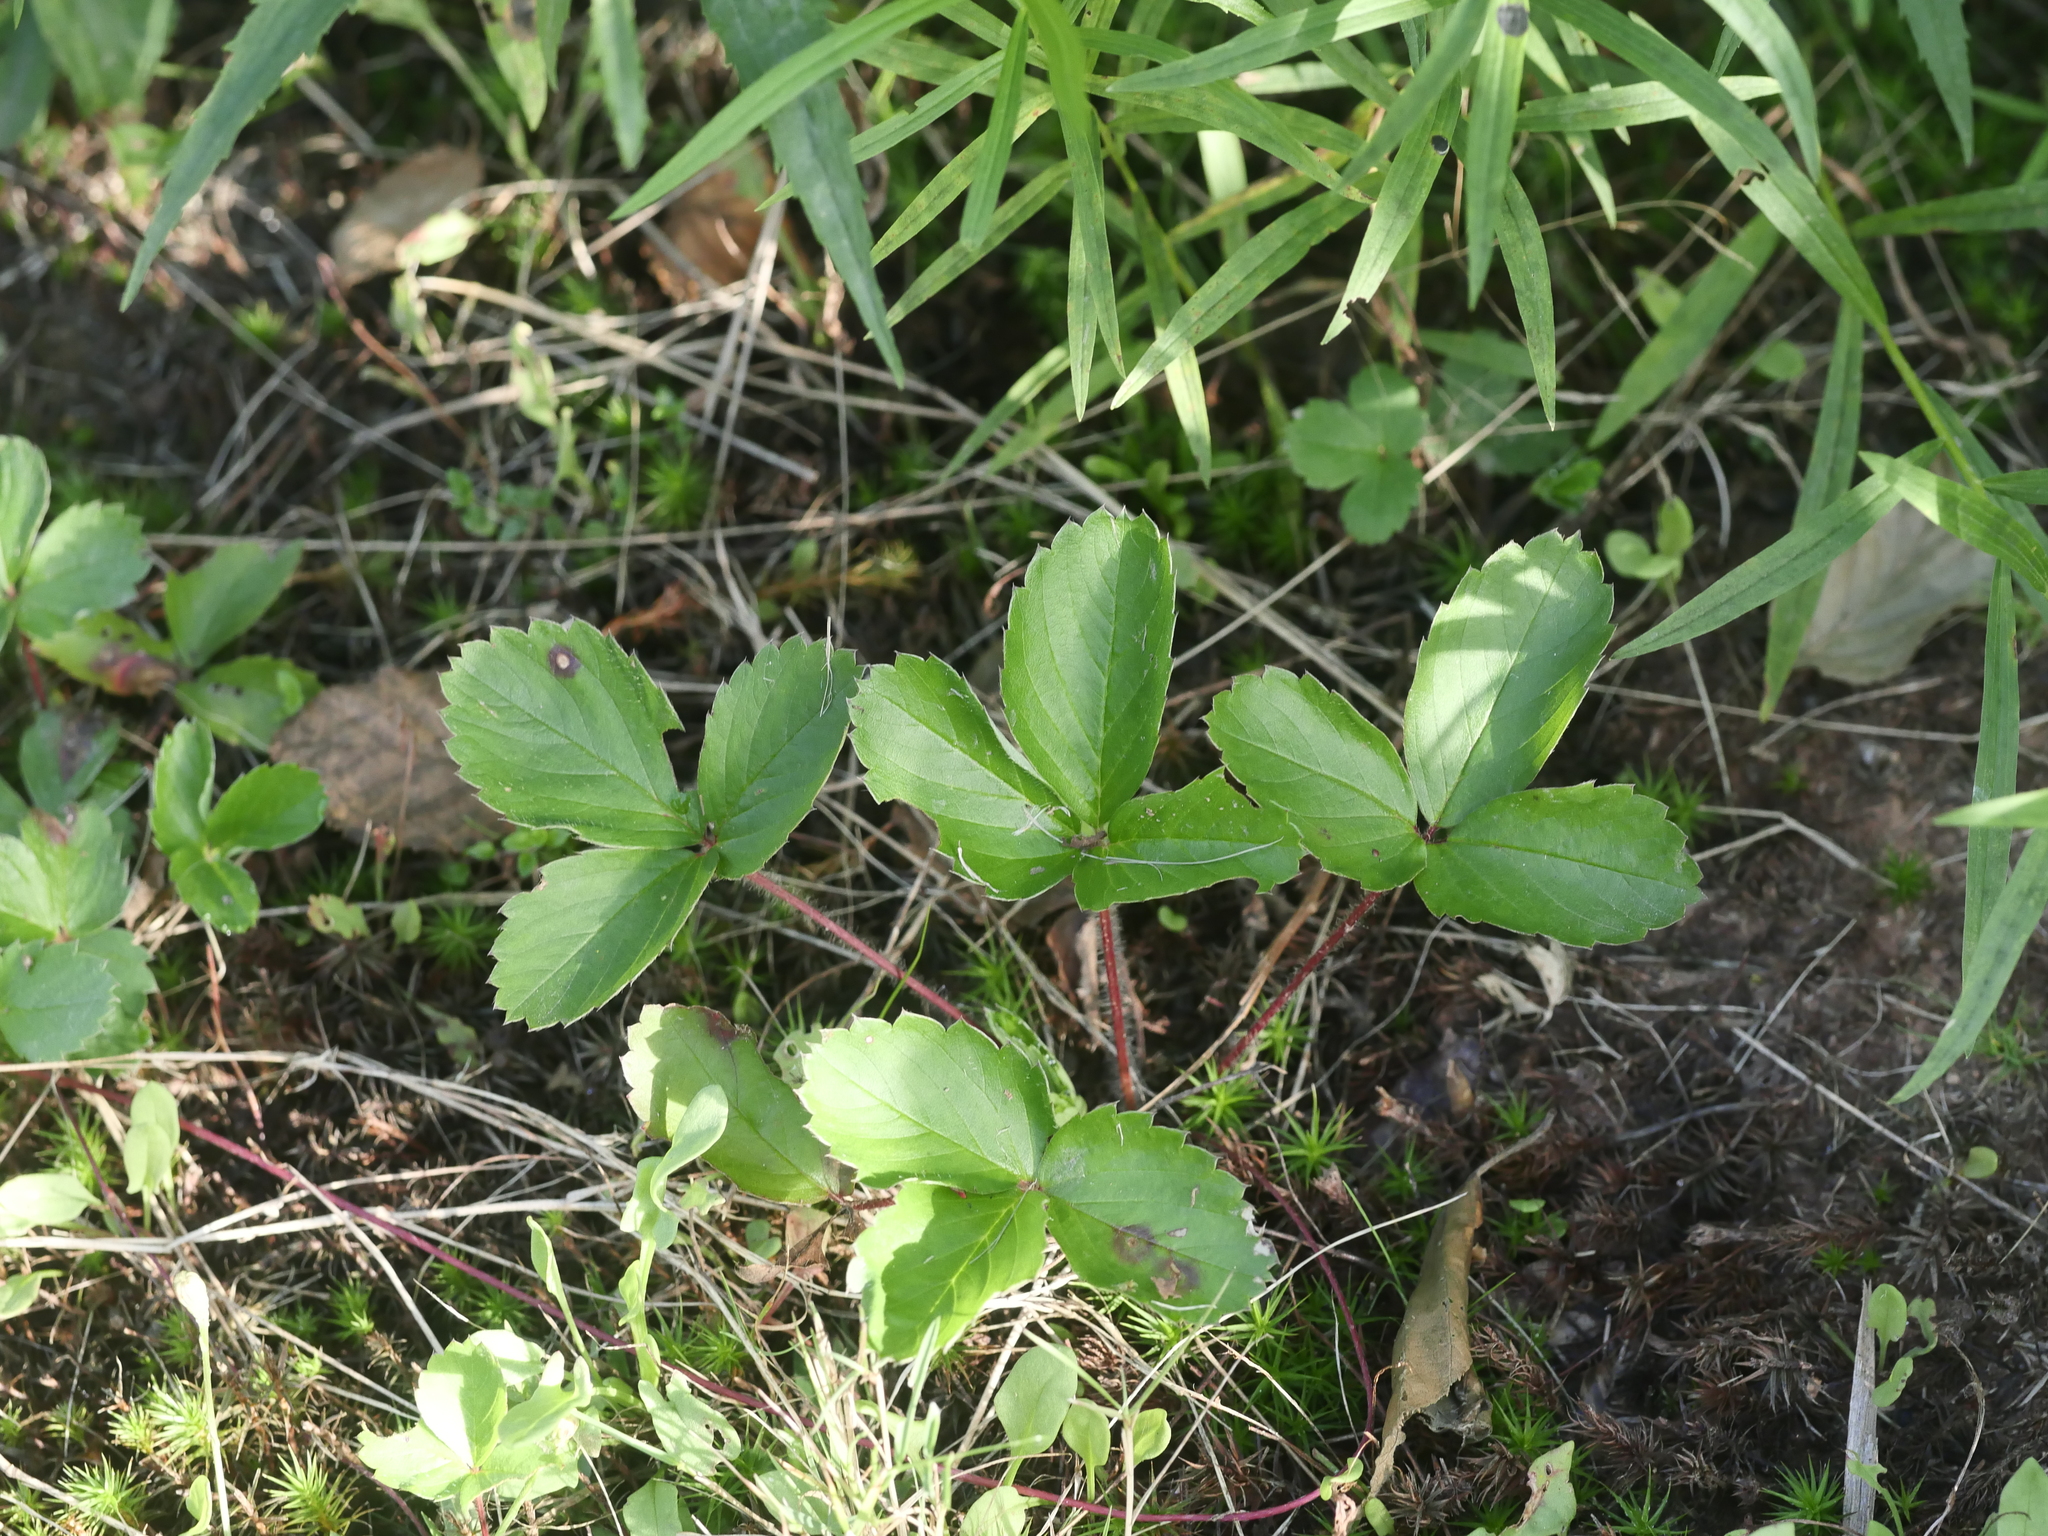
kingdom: Plantae
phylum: Tracheophyta
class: Magnoliopsida
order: Rosales
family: Rosaceae
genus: Fragaria
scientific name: Fragaria virginiana
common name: Thickleaved wild strawberry
